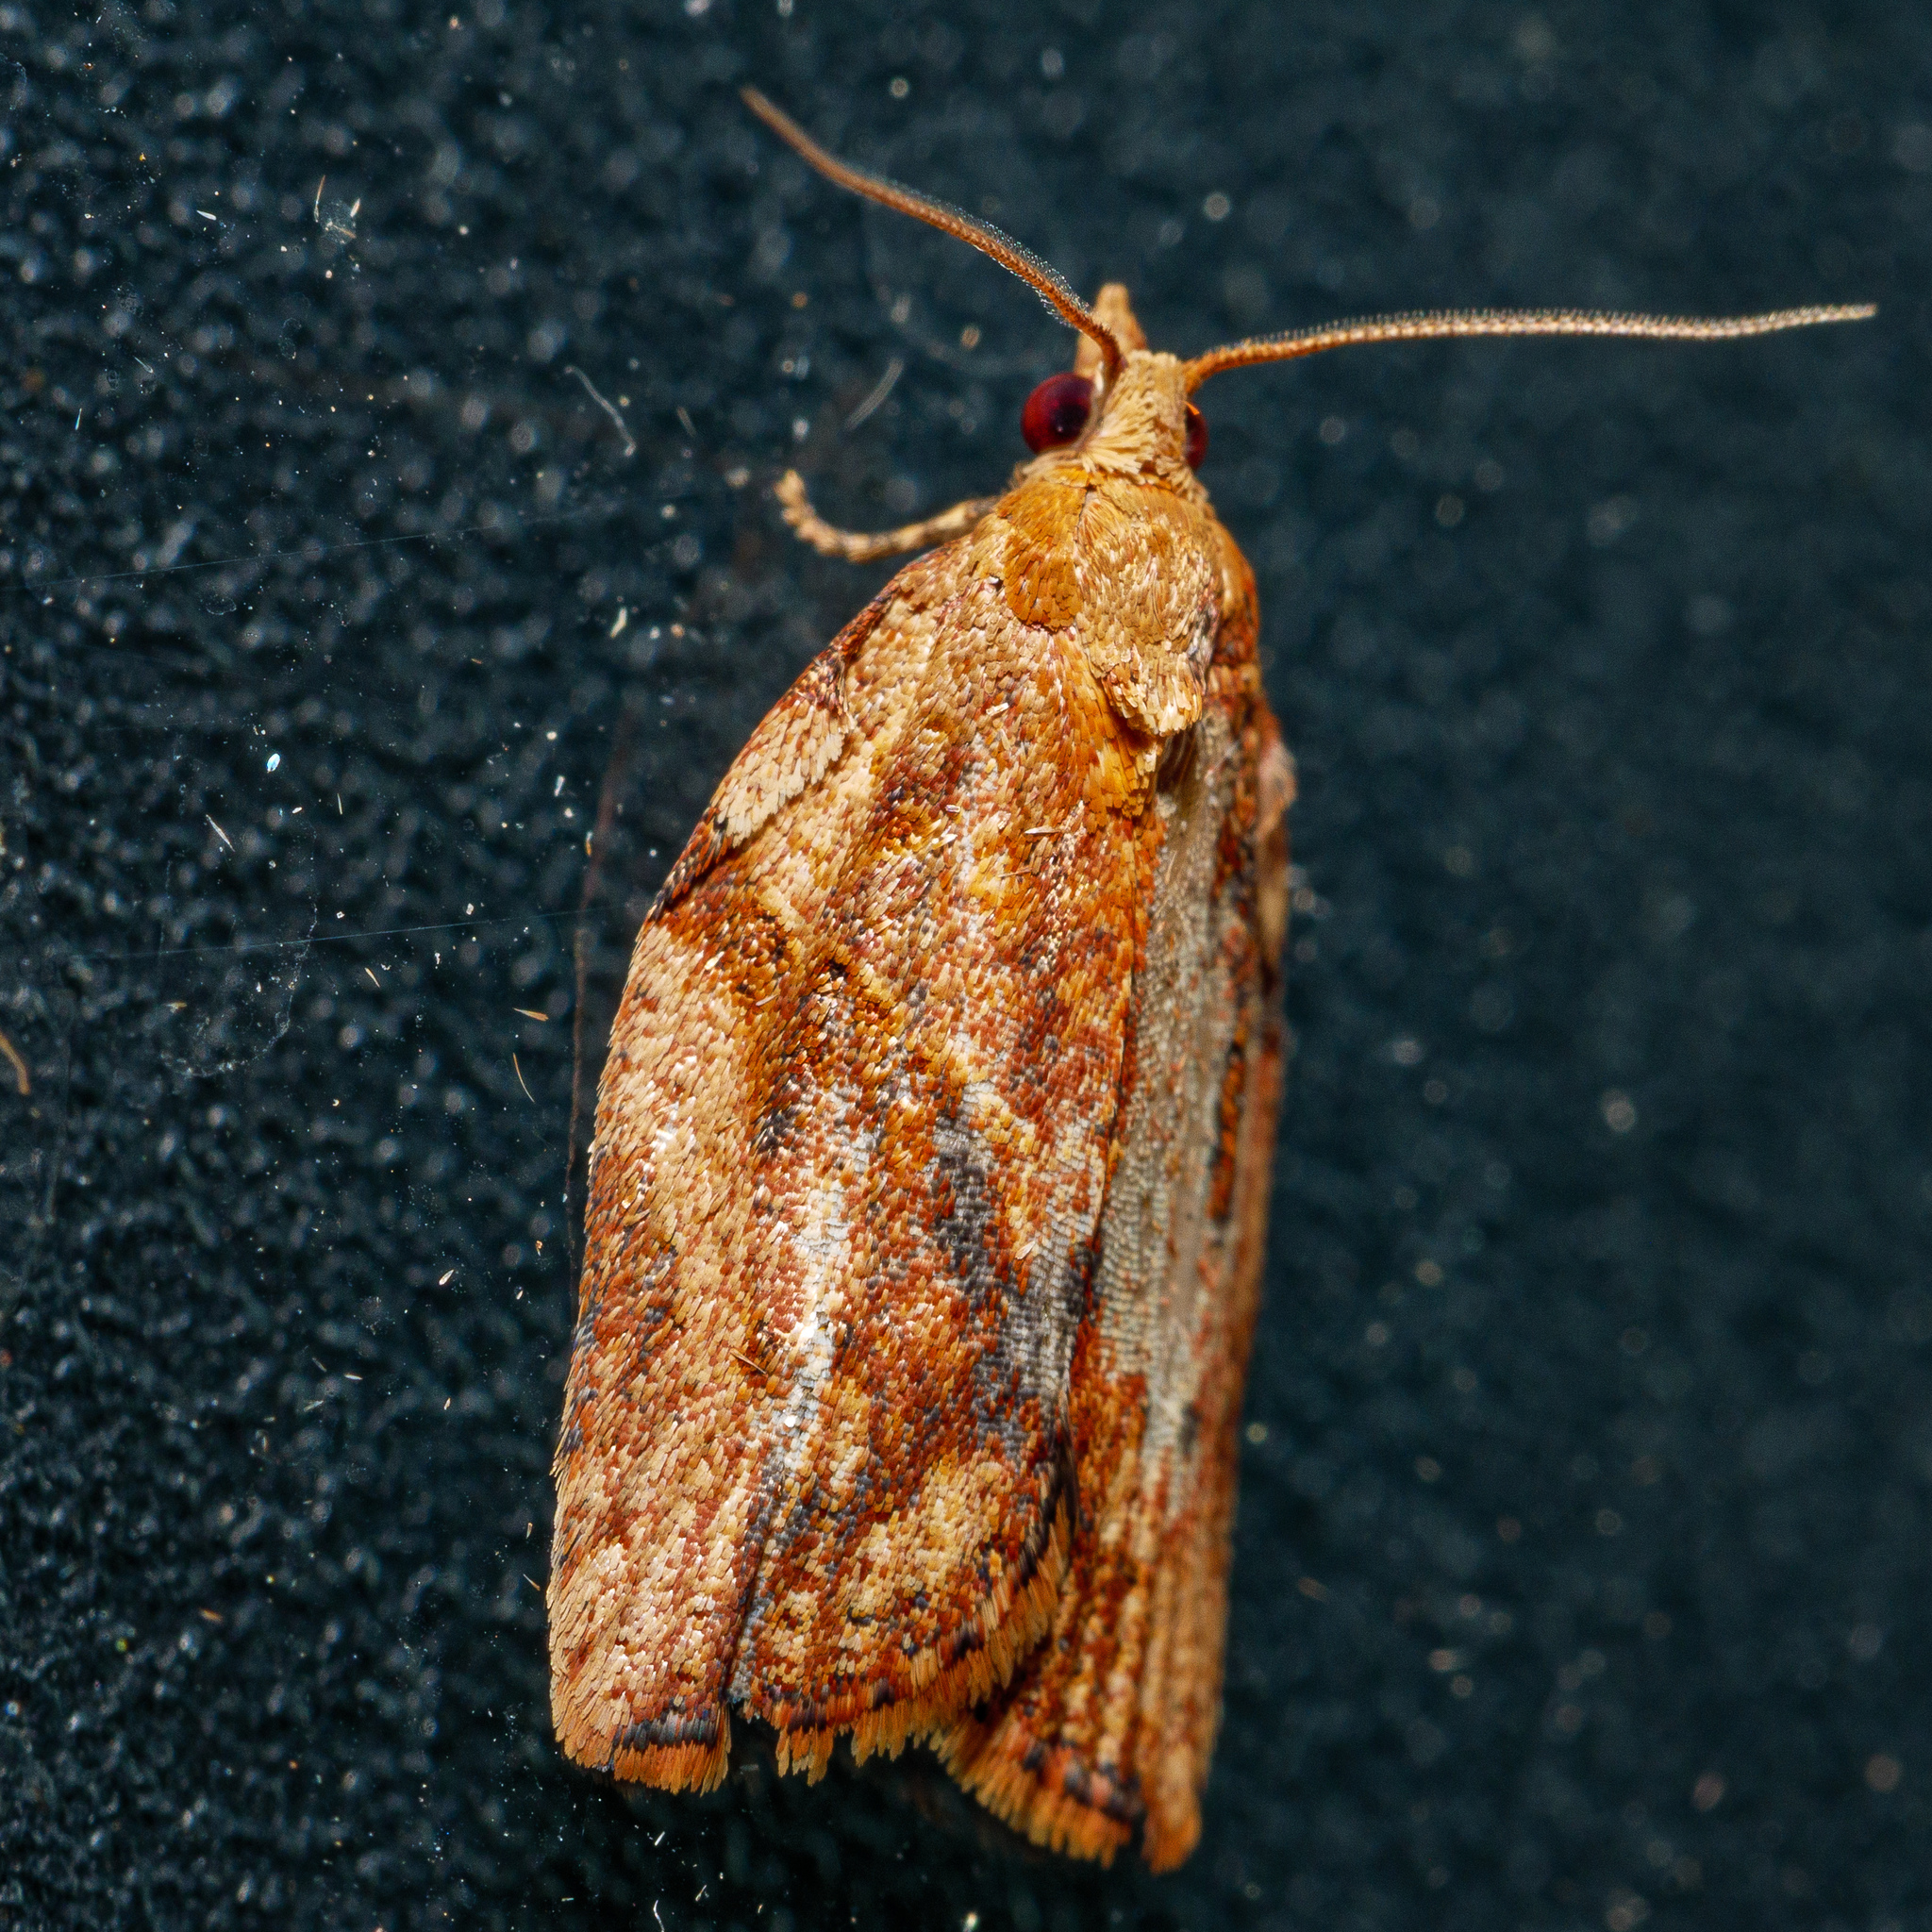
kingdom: Animalia
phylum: Arthropoda
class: Insecta
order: Lepidoptera
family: Tortricidae
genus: Epiphyas
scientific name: Epiphyas postvittana
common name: Light brown apple moth
